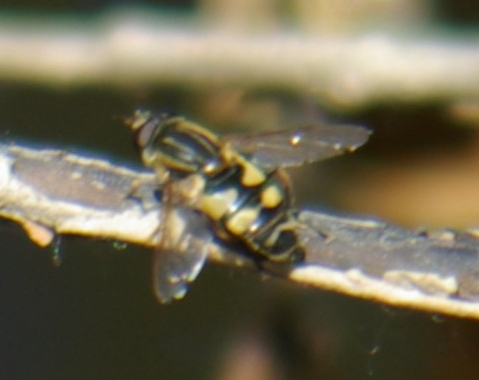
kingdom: Animalia
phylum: Arthropoda
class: Insecta
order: Diptera
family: Syrphidae
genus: Helophilus
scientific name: Helophilus fasciatus
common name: Narrow-headed marsh fly
